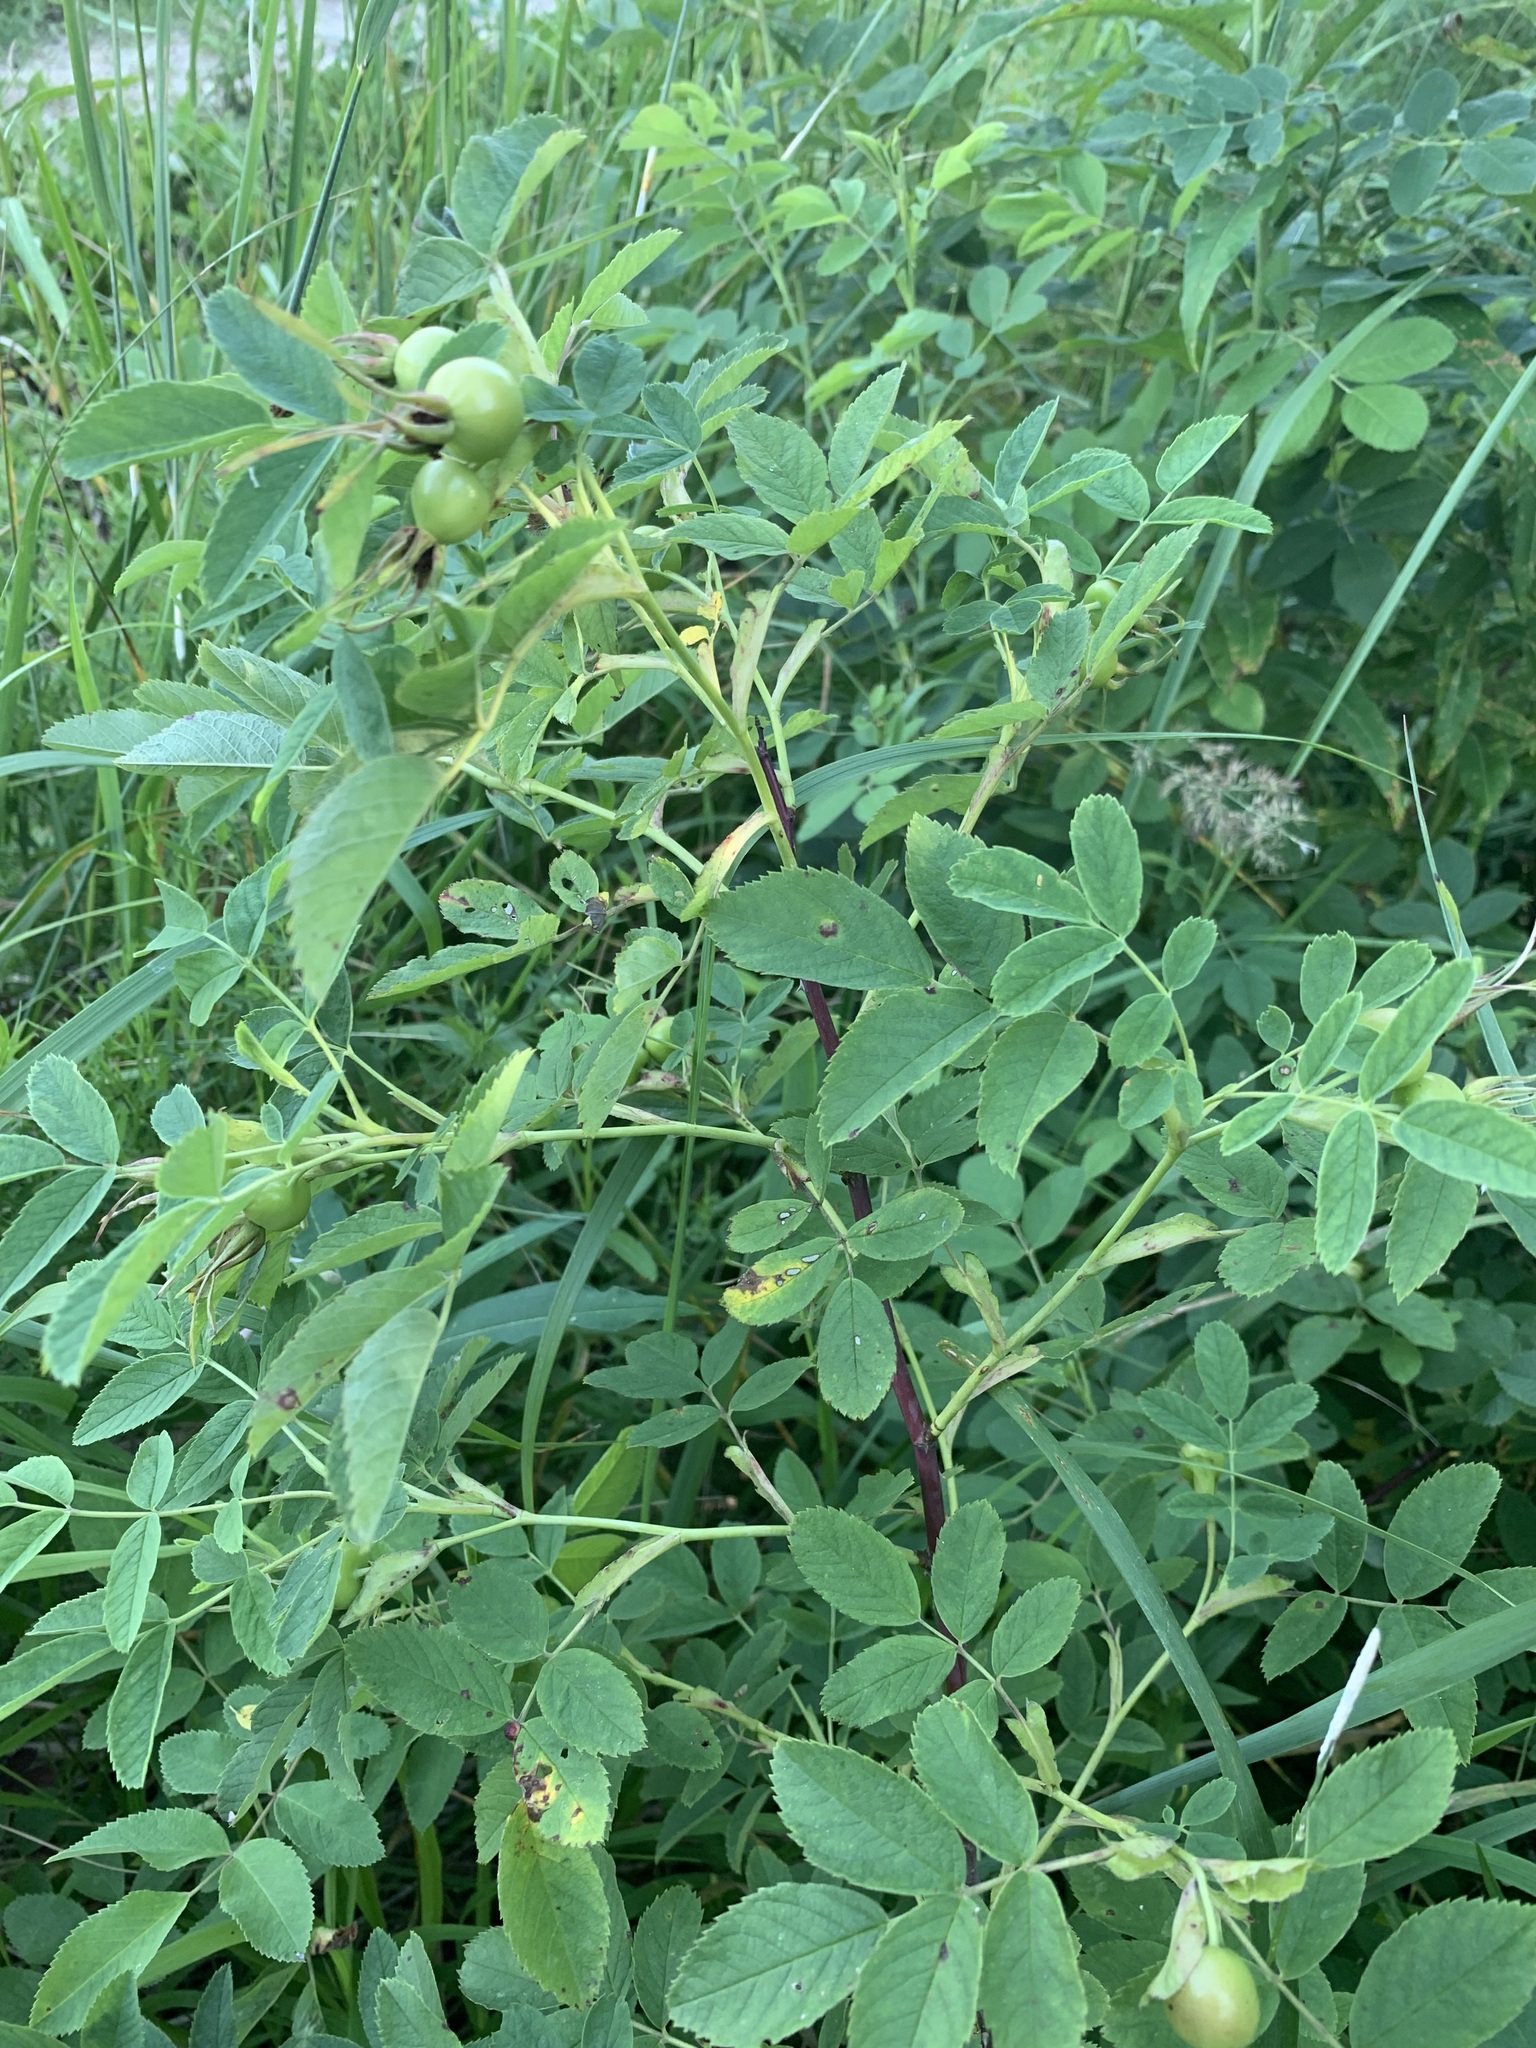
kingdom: Plantae
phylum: Tracheophyta
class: Magnoliopsida
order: Rosales
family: Rosaceae
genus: Rosa
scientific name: Rosa glabrifolia
